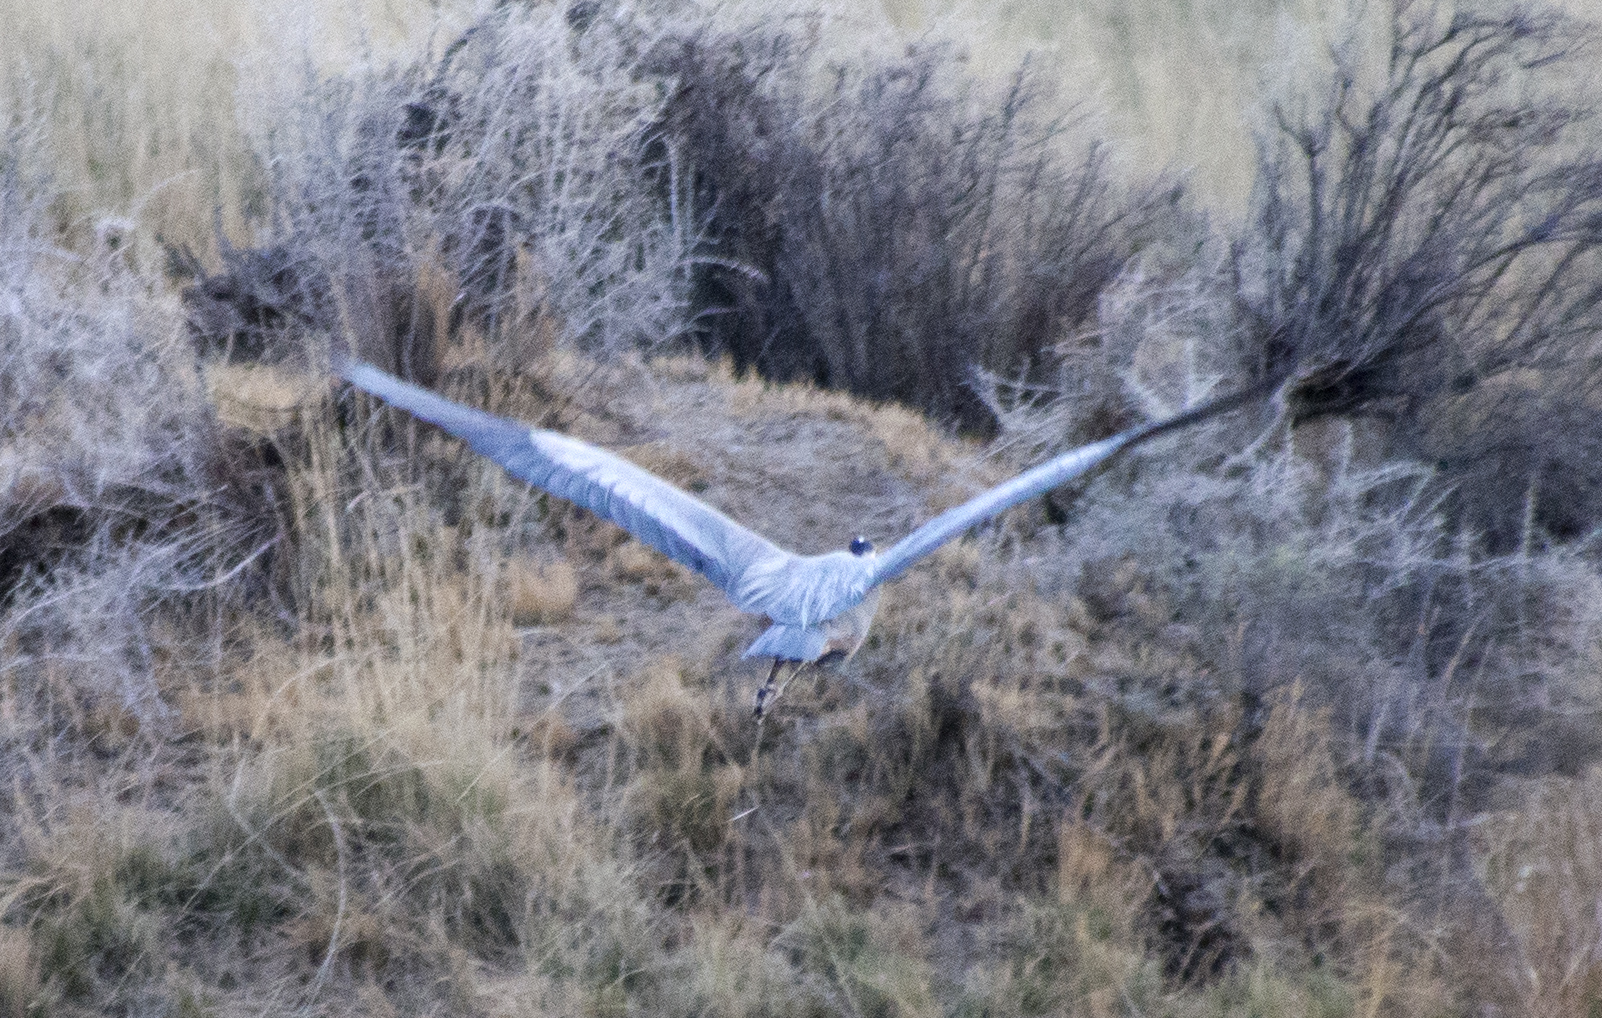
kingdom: Animalia
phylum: Chordata
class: Aves
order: Pelecaniformes
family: Ardeidae
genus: Ardea
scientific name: Ardea herodias
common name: Great blue heron
